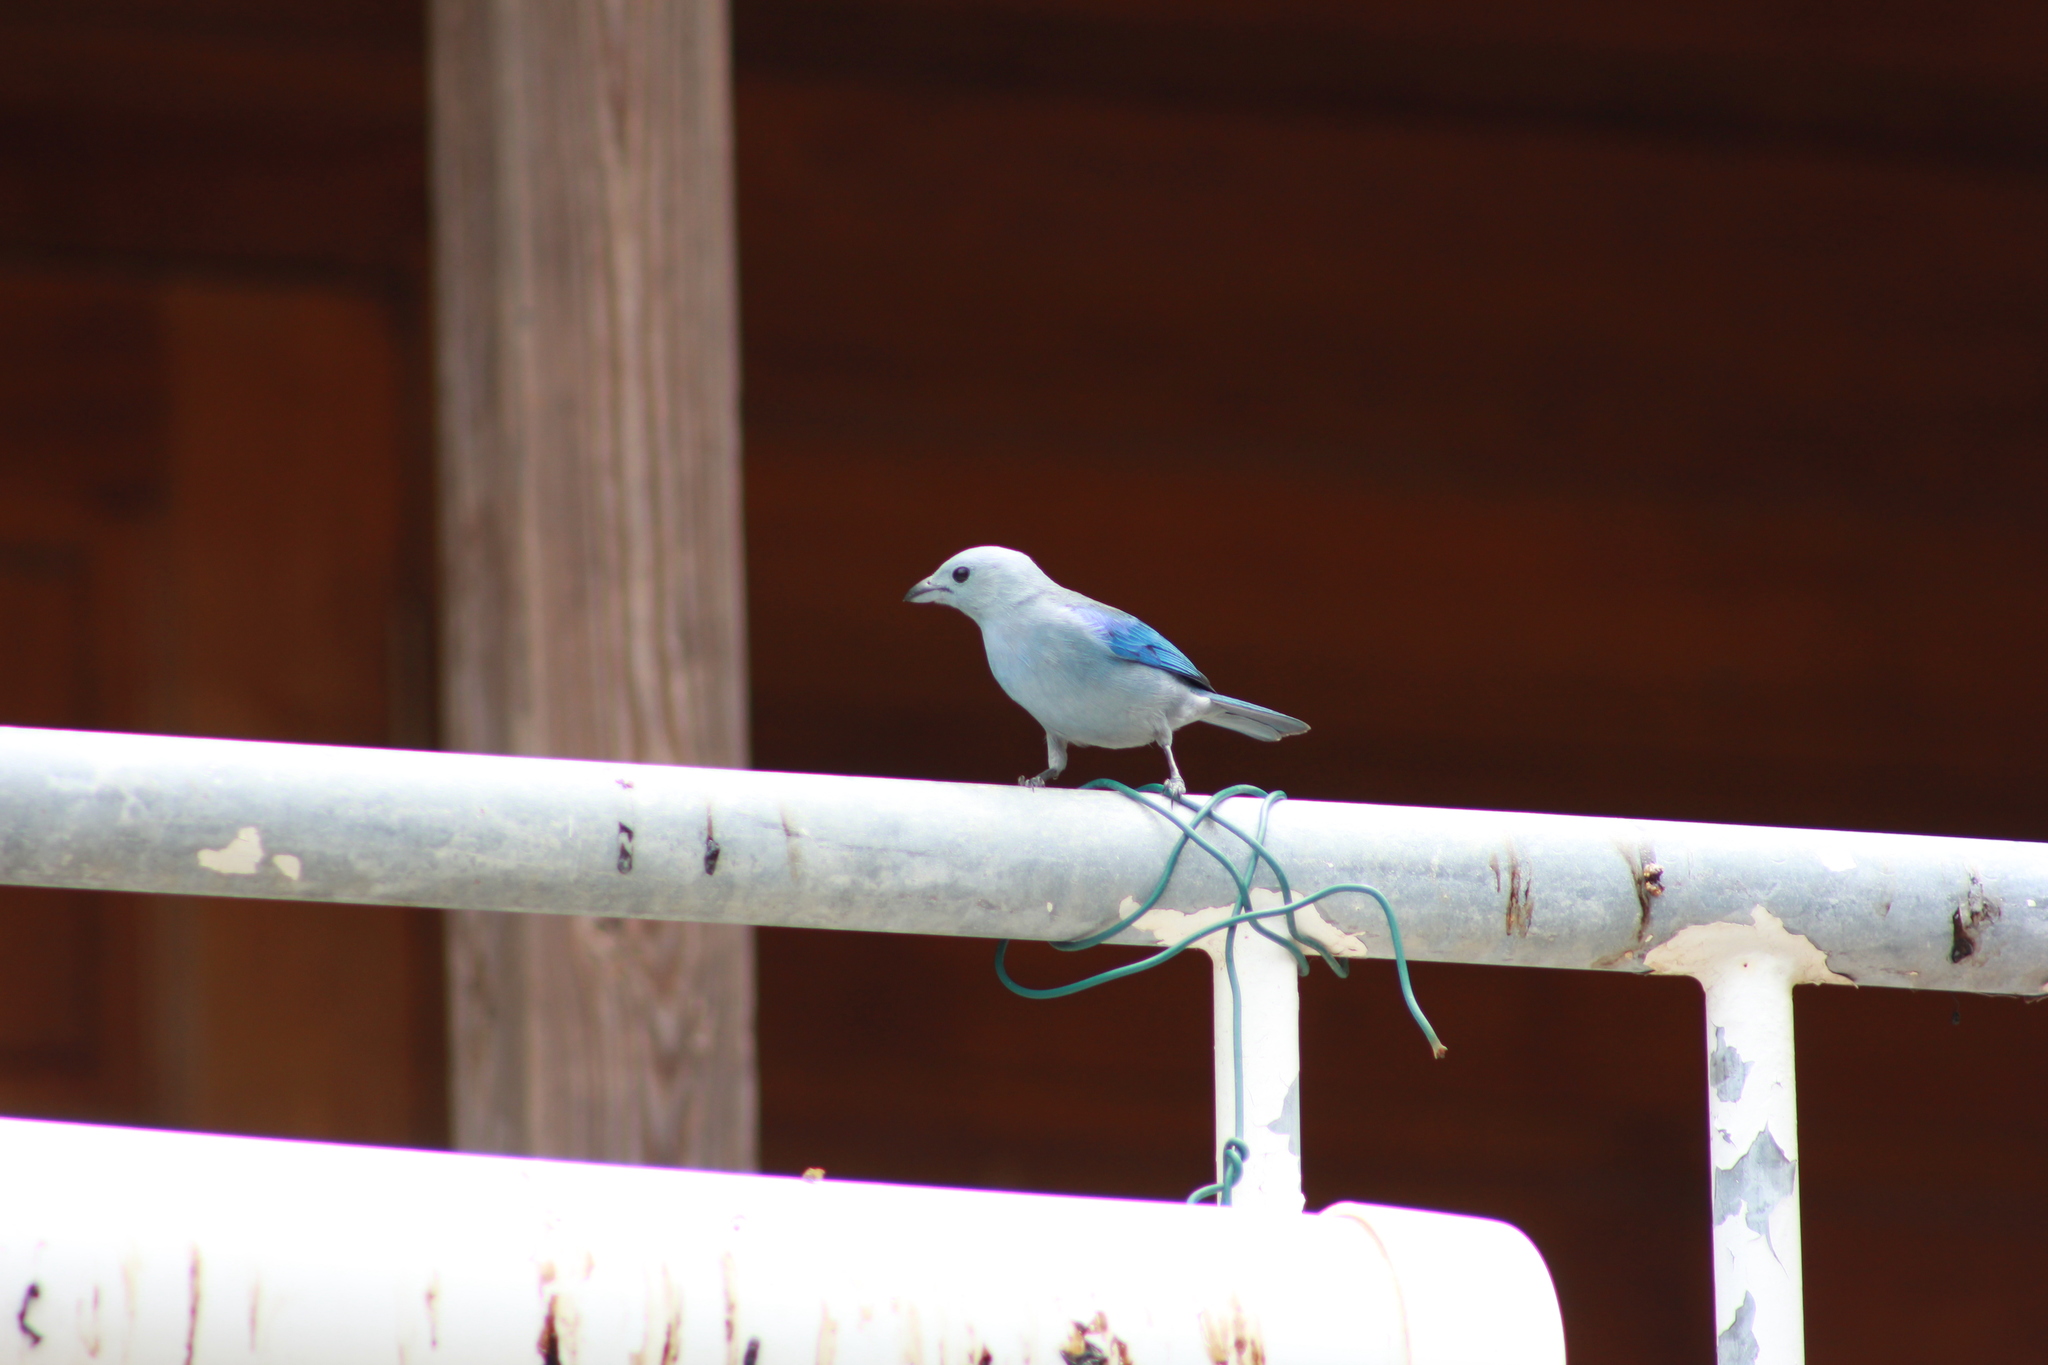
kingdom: Animalia
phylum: Chordata
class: Aves
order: Passeriformes
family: Thraupidae
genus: Thraupis
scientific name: Thraupis episcopus
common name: Blue-grey tanager
